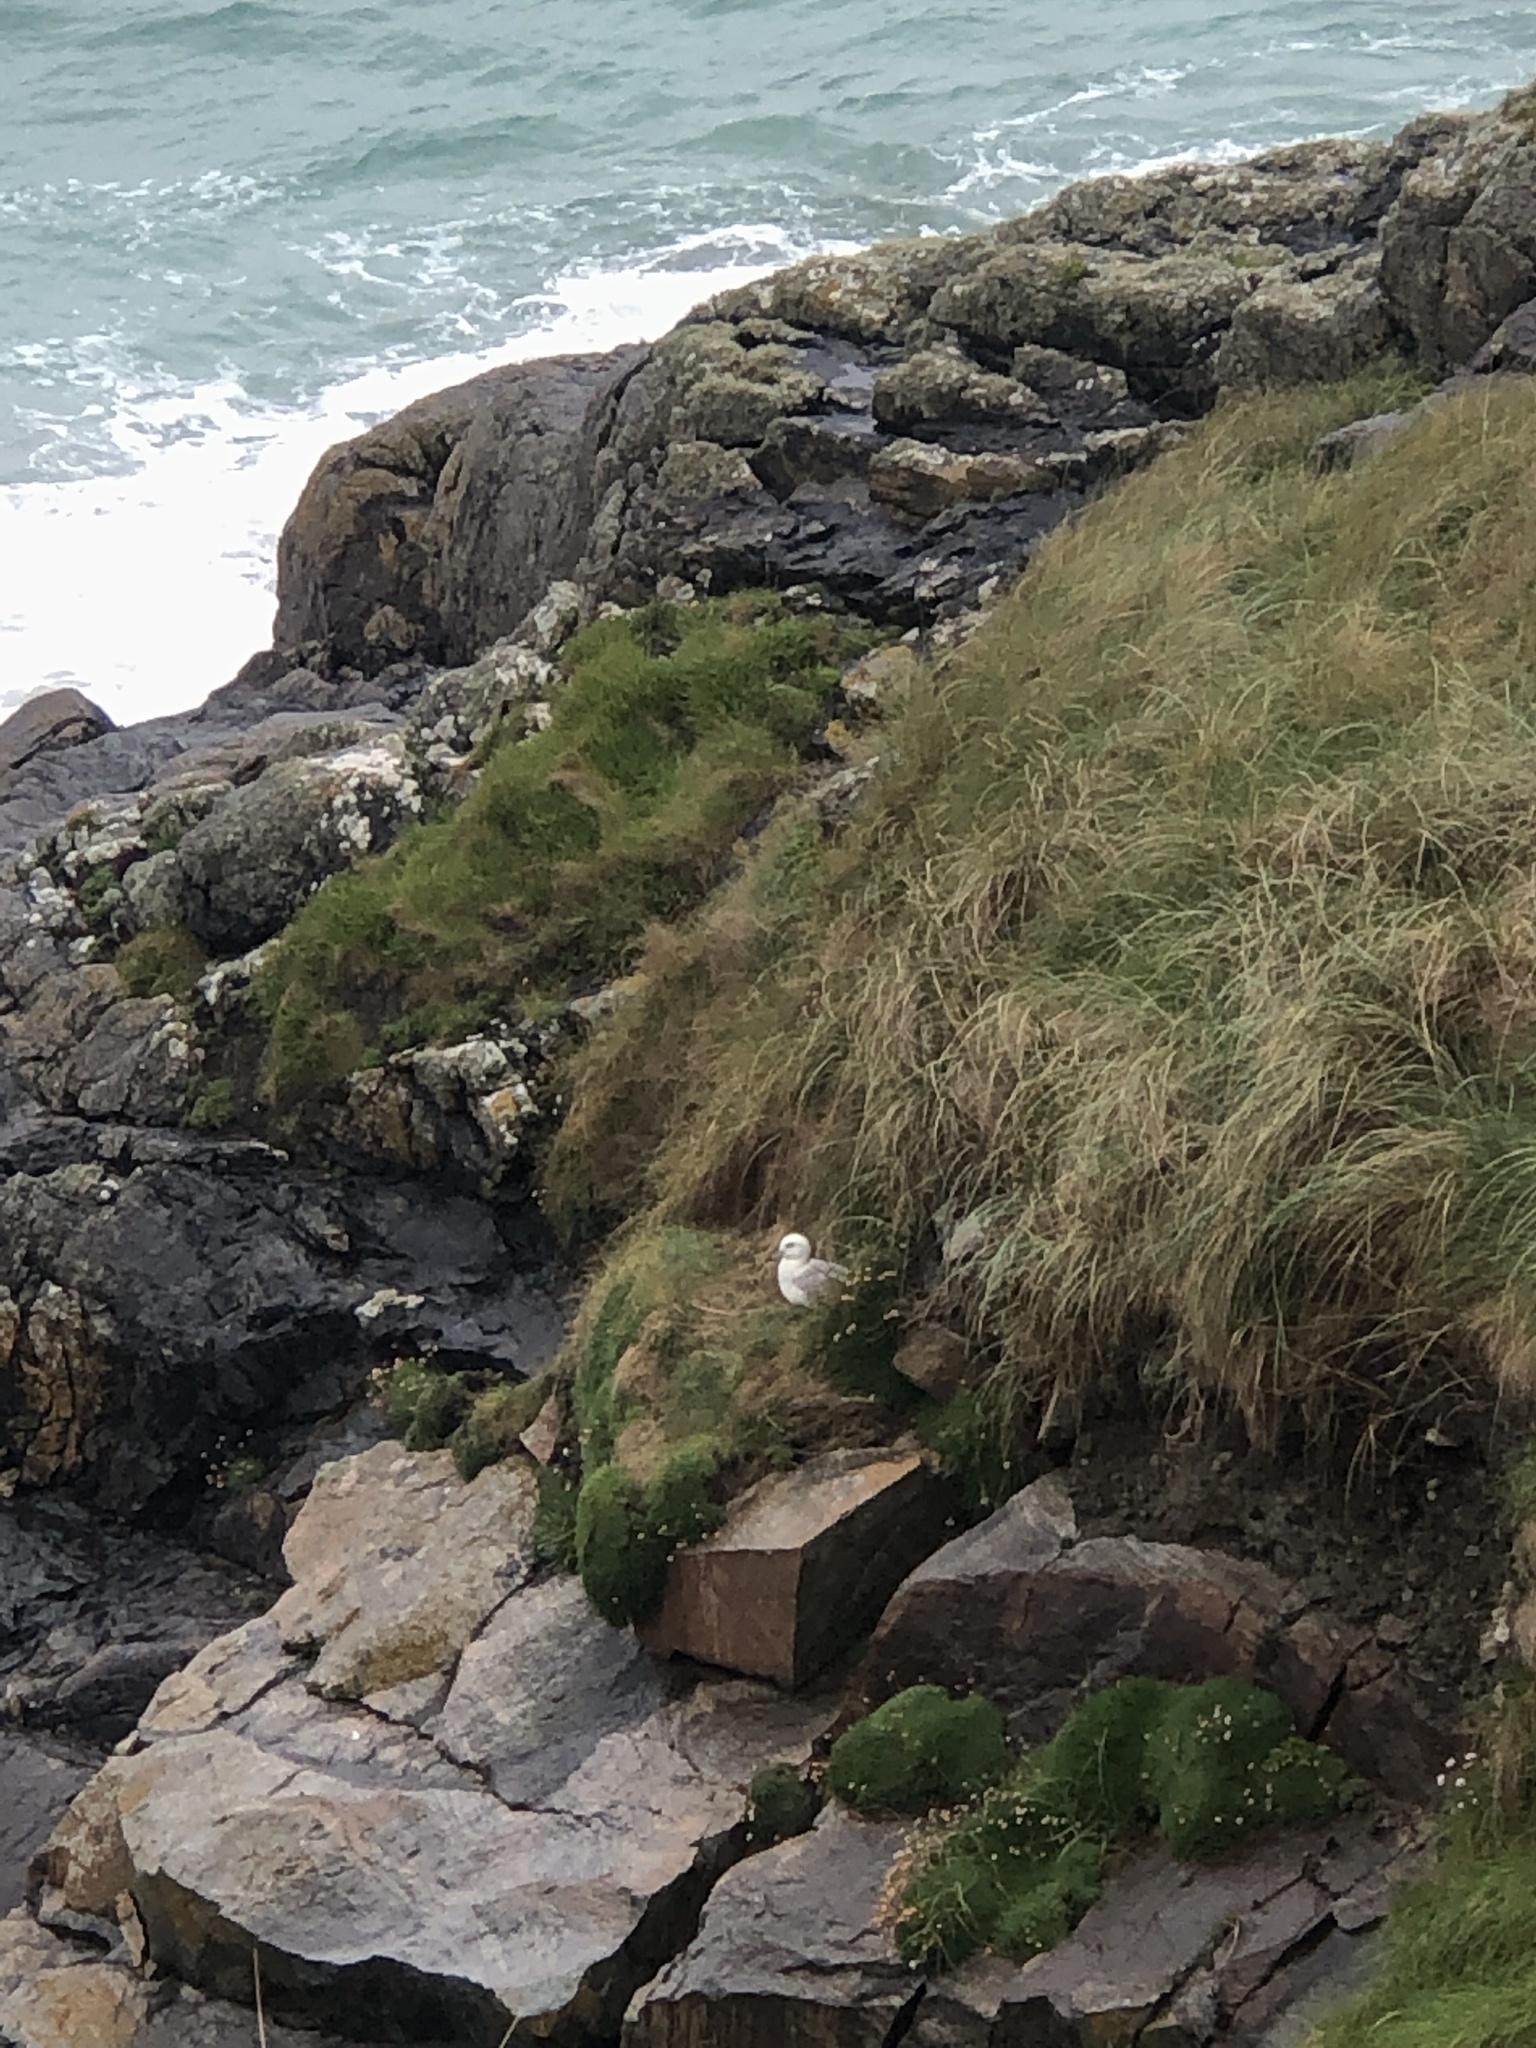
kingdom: Animalia
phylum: Chordata
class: Aves
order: Procellariiformes
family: Procellariidae
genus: Fulmarus
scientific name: Fulmarus glacialis
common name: Northern fulmar
